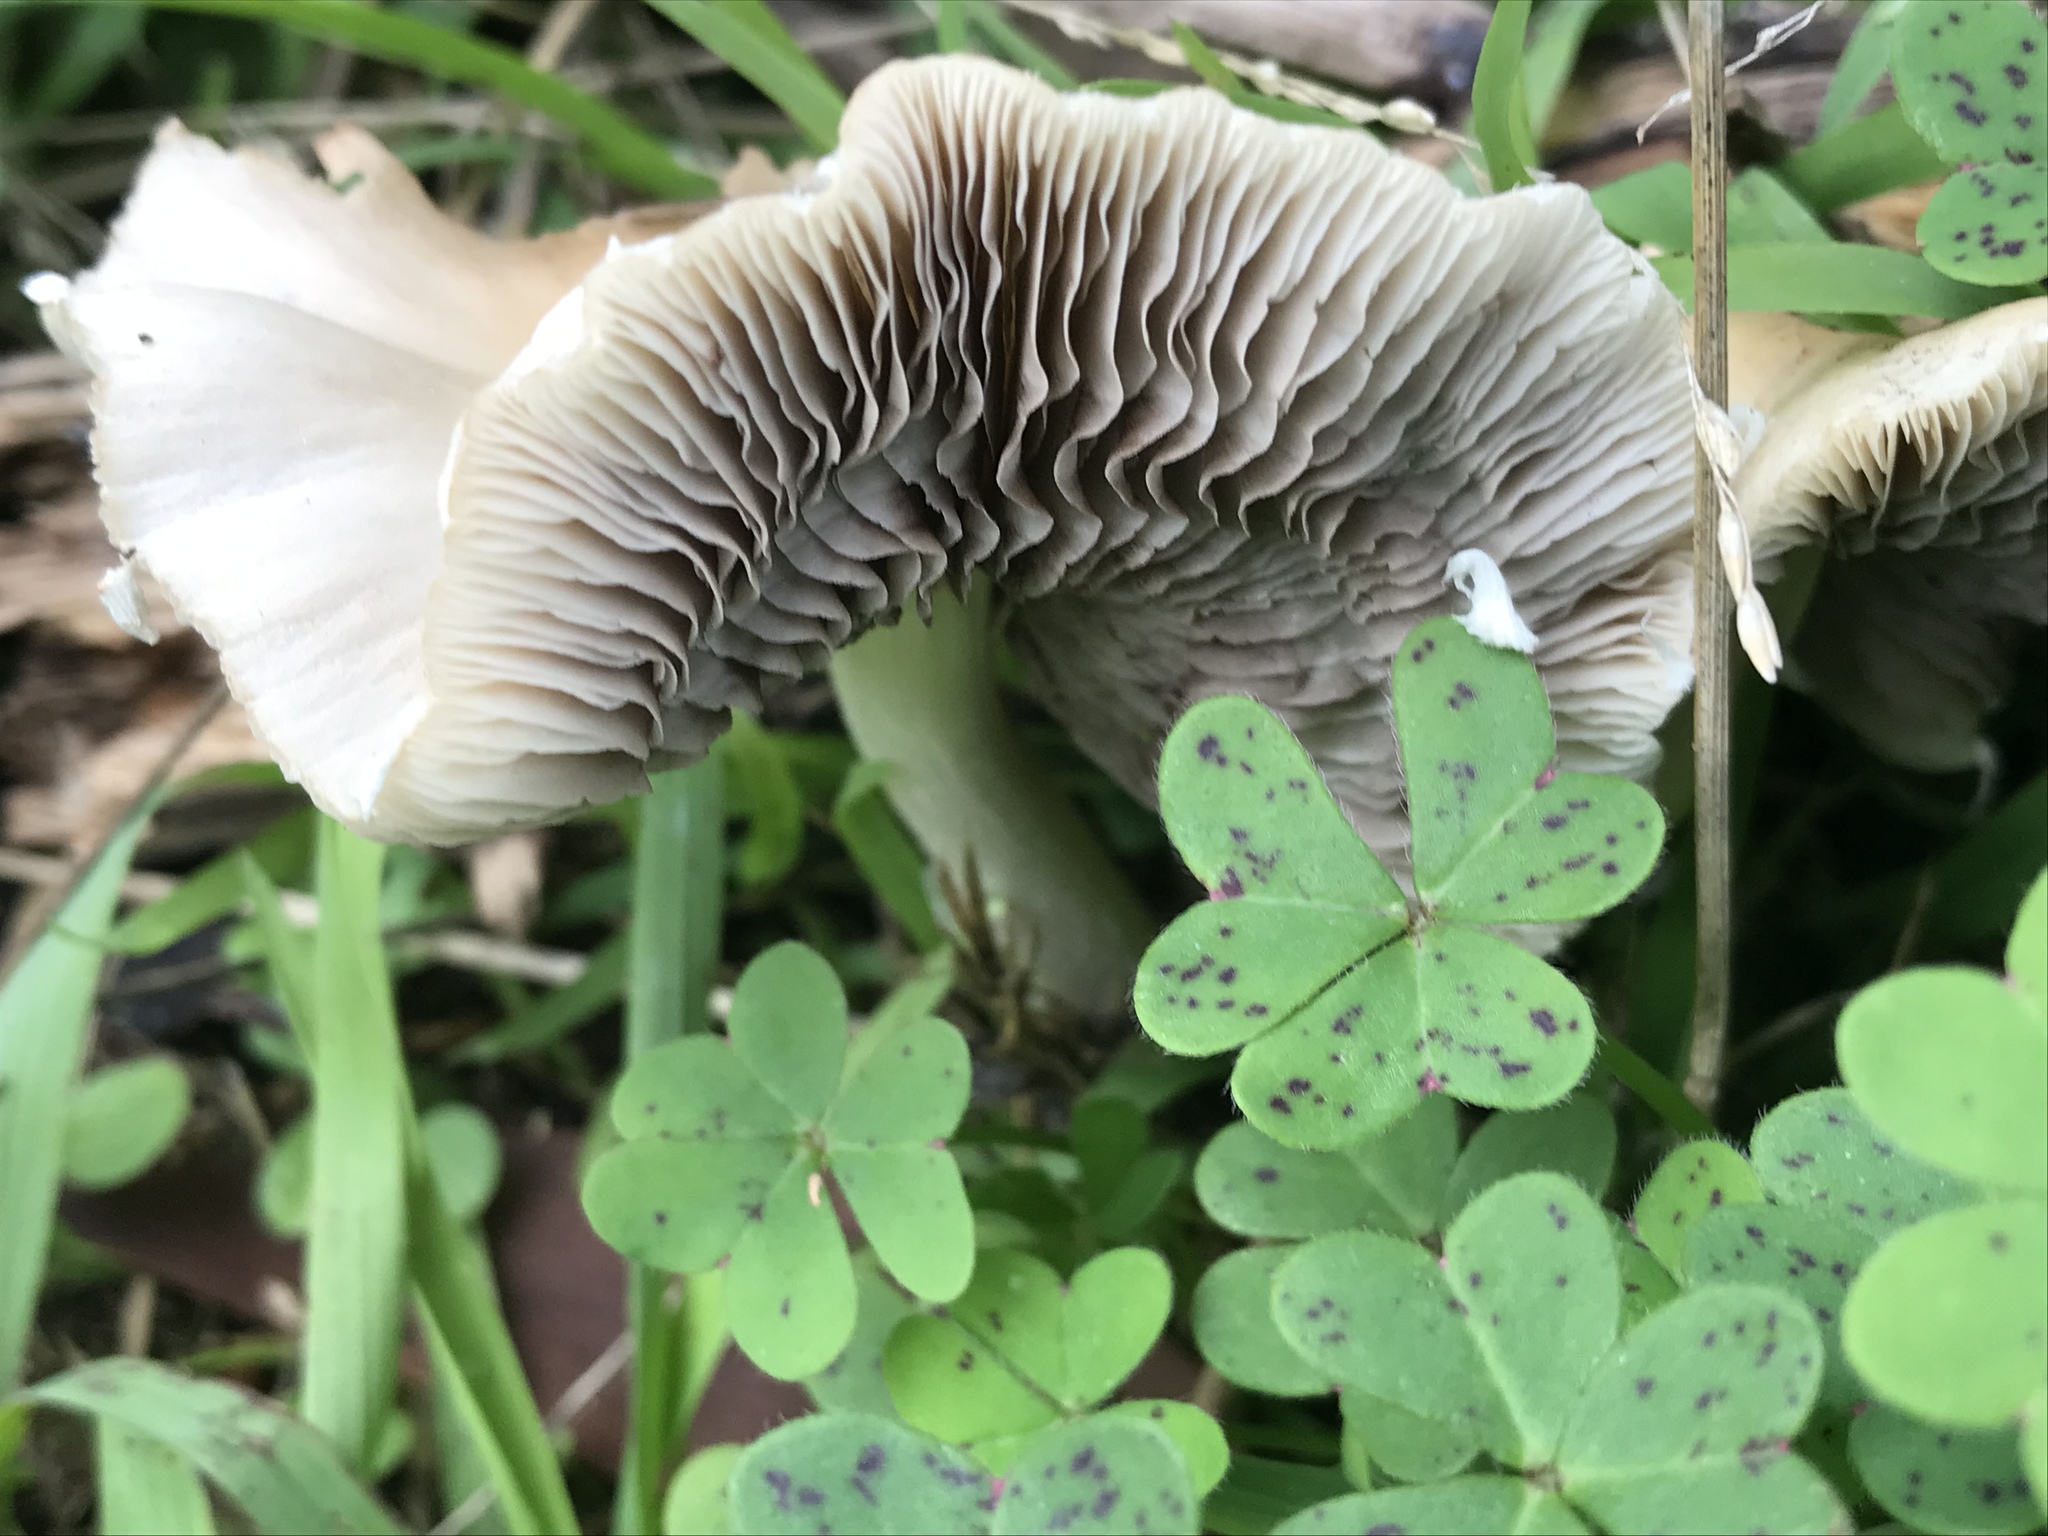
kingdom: Fungi
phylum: Basidiomycota
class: Agaricomycetes
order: Agaricales
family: Psathyrellaceae
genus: Candolleomyces
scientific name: Candolleomyces candolleanus
